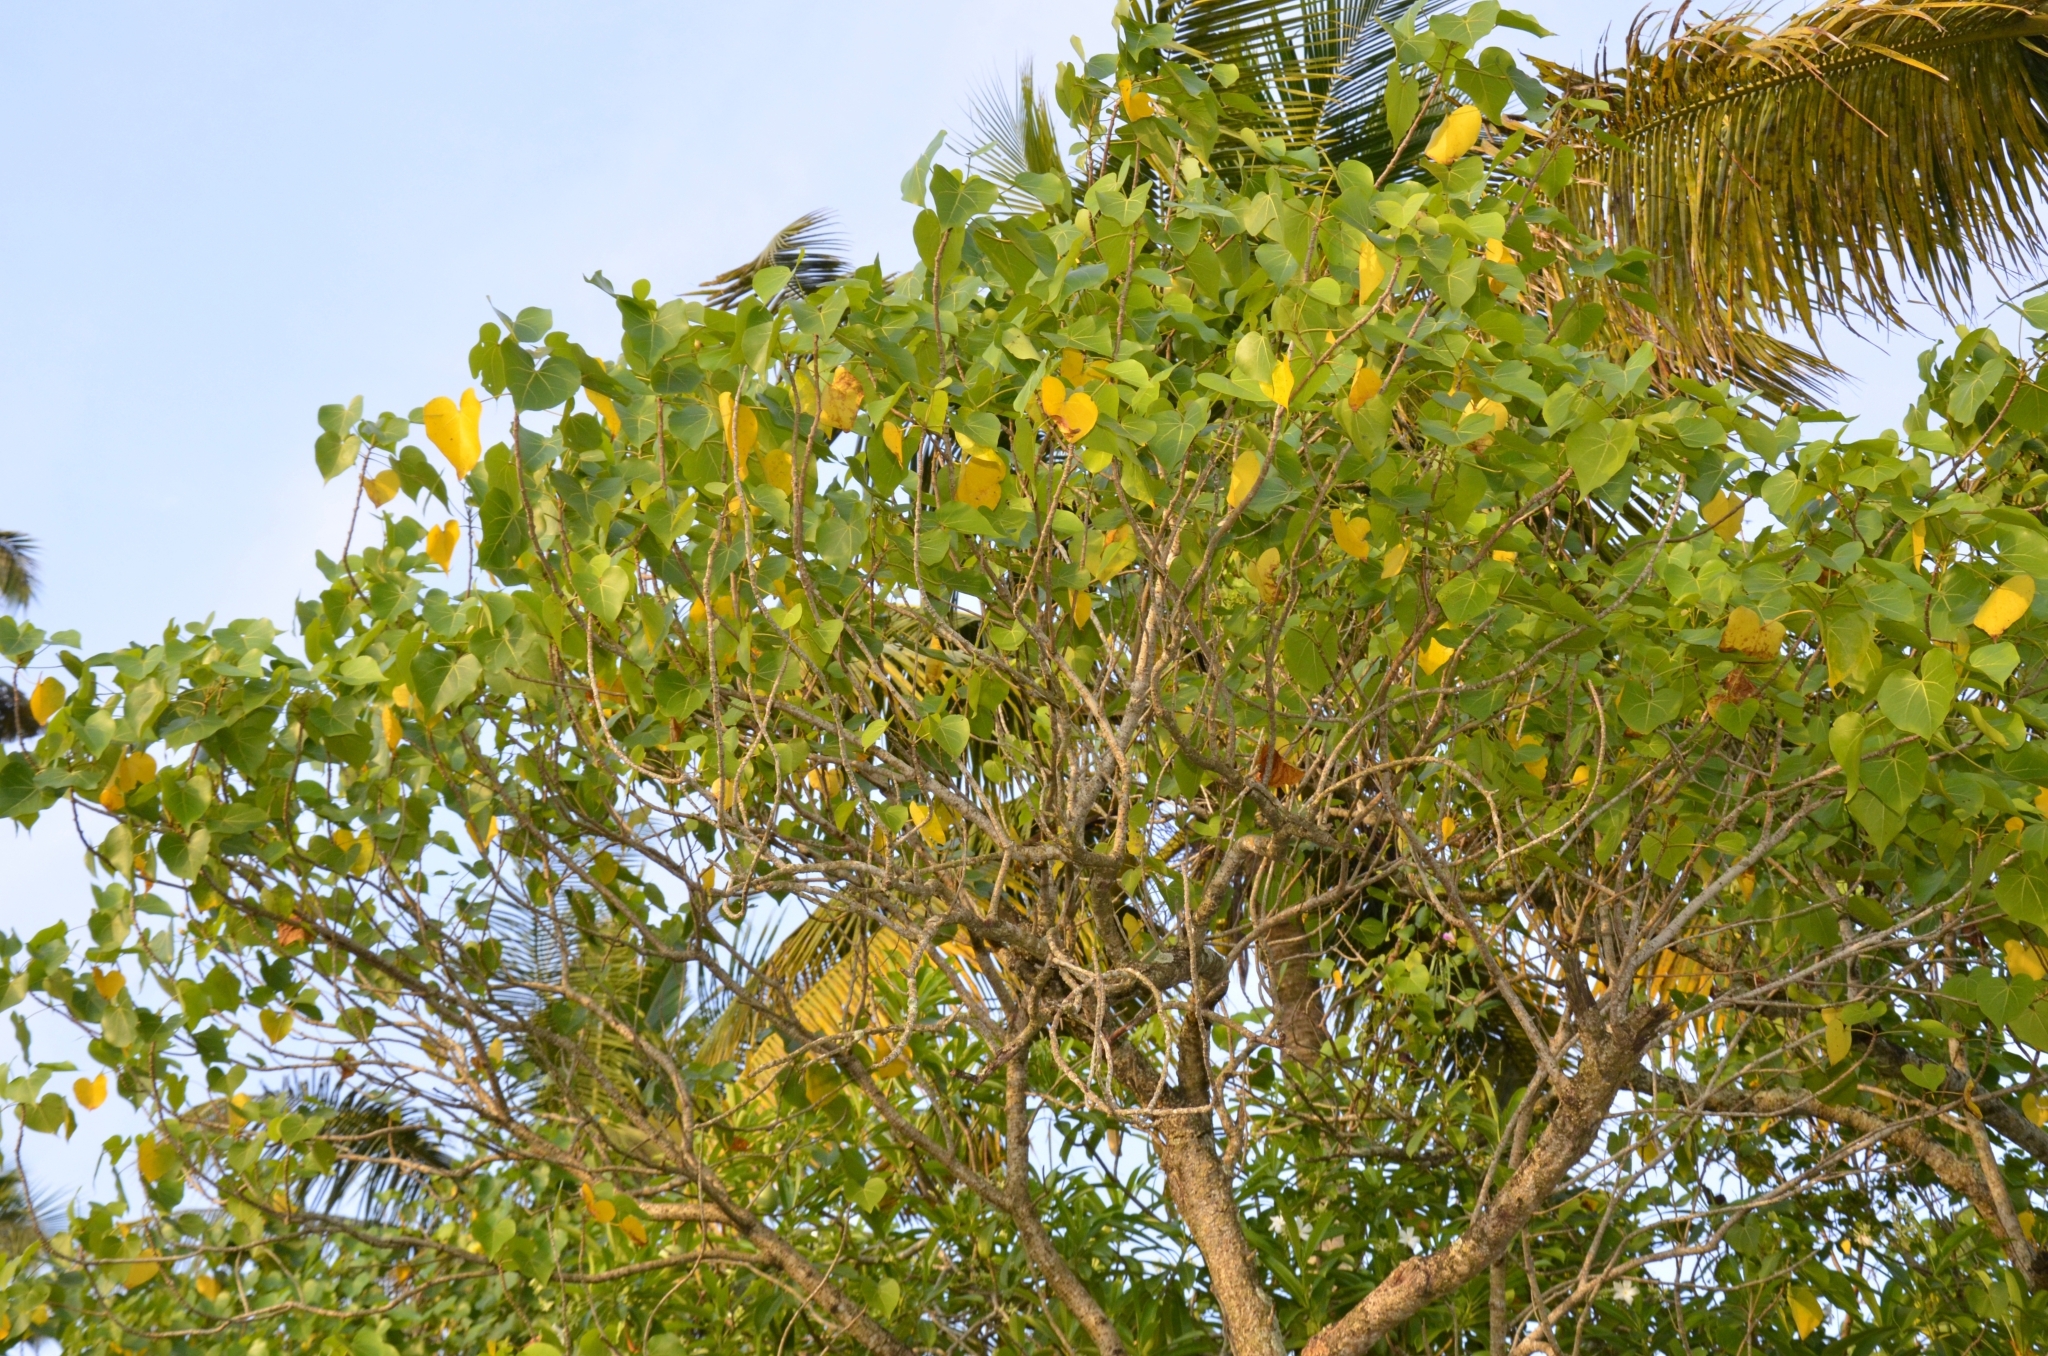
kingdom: Plantae
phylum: Tracheophyta
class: Magnoliopsida
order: Malvales
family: Malvaceae
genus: Thespesia
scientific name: Thespesia populnea
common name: Seaside mahoe
